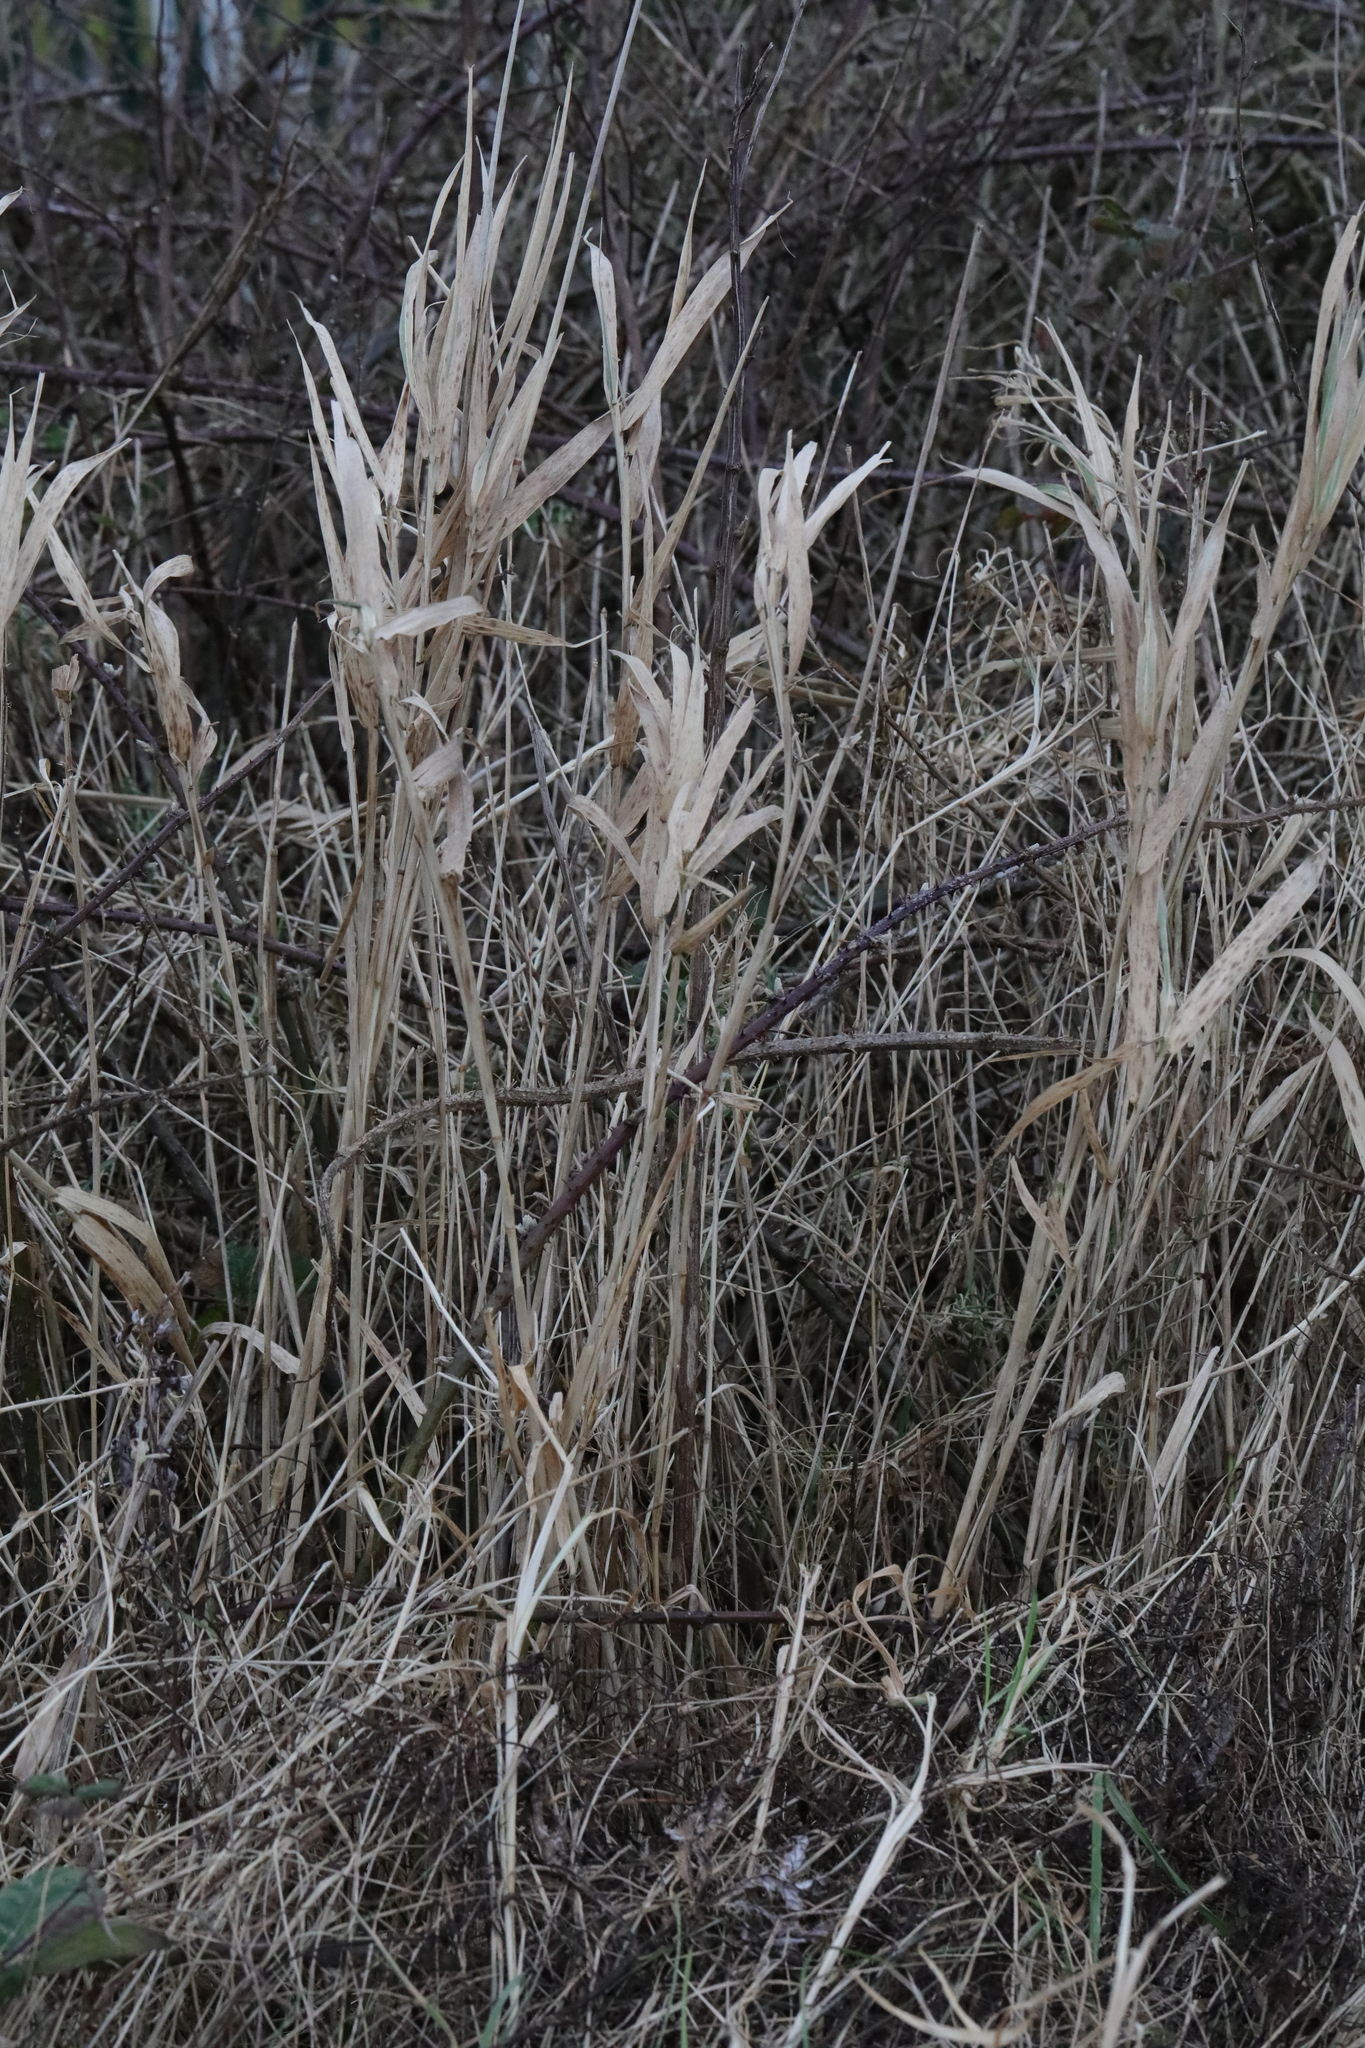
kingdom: Plantae
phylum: Tracheophyta
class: Liliopsida
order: Poales
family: Poaceae
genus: Phalaris
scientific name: Phalaris arundinacea
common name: Reed canary-grass
